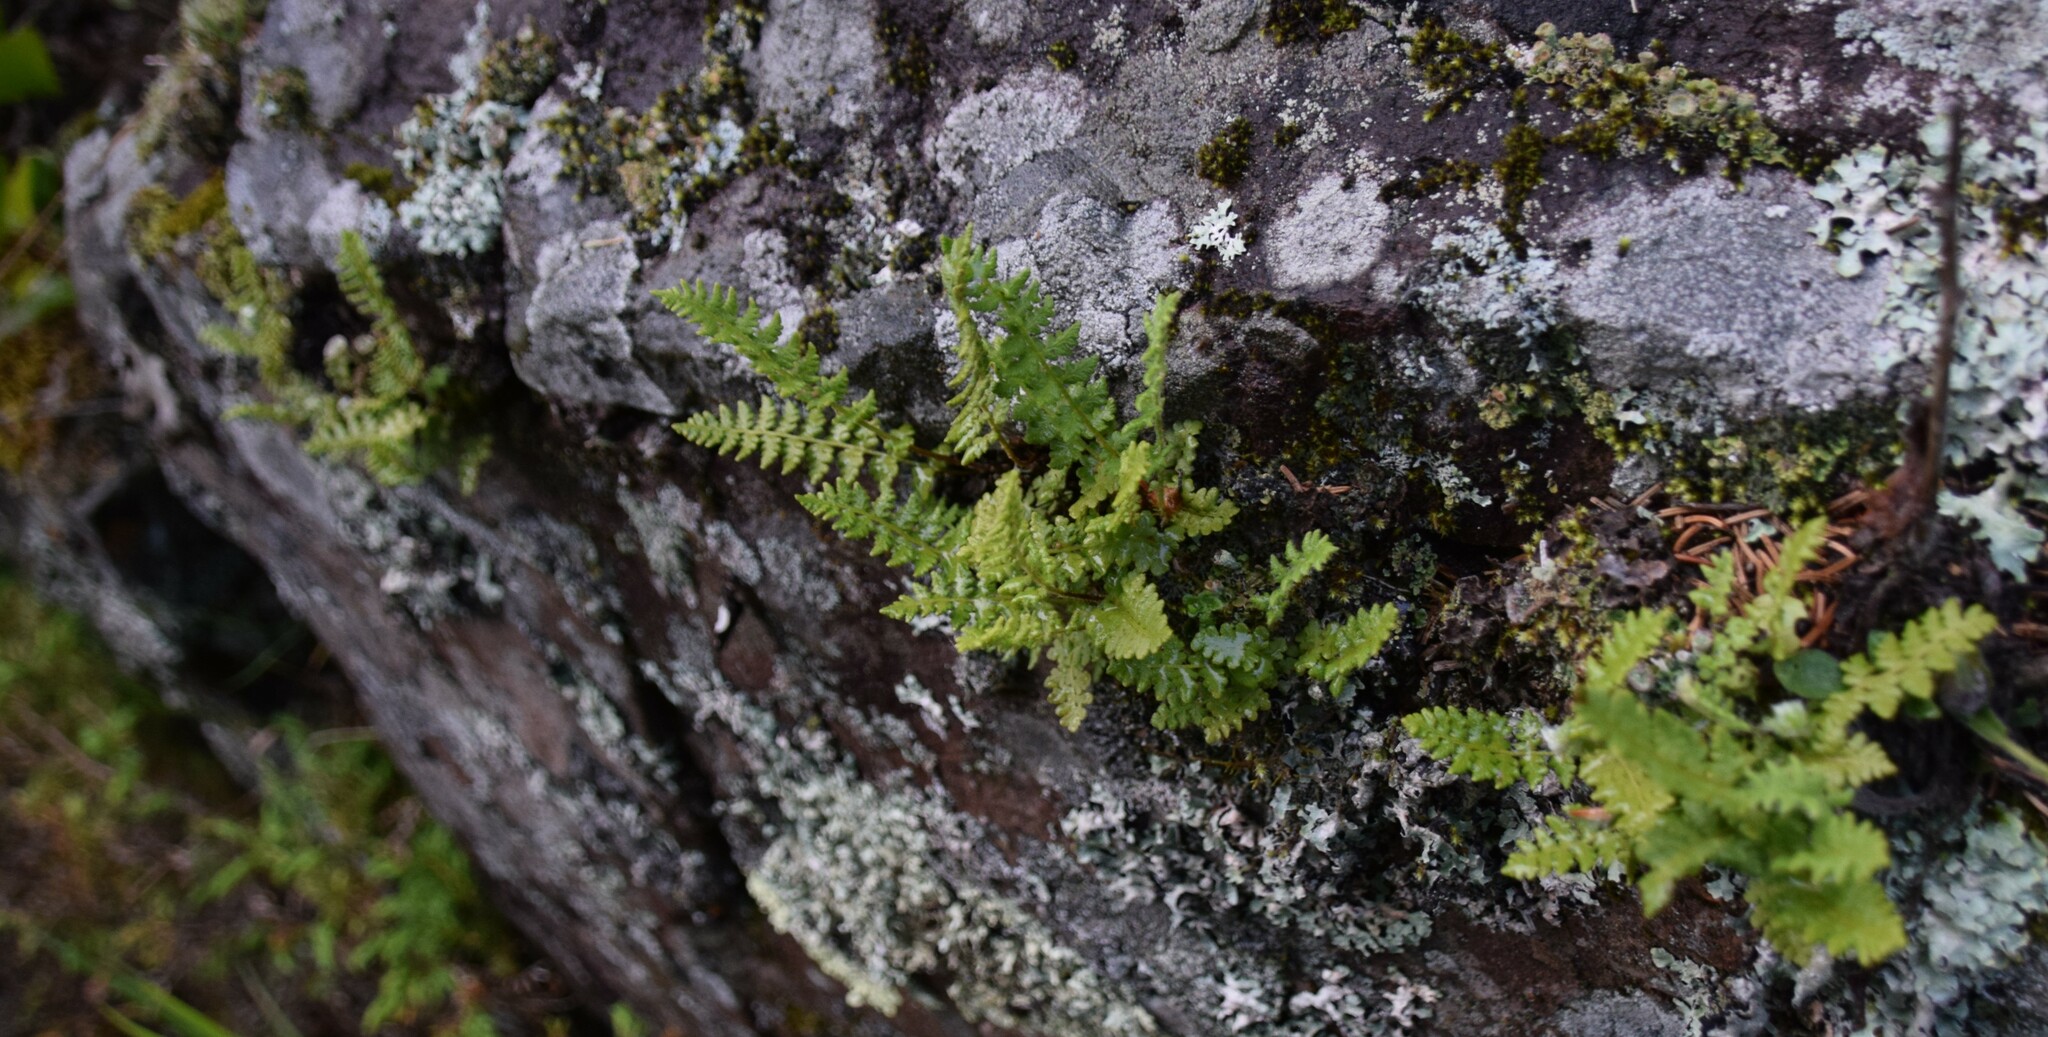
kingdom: Plantae
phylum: Tracheophyta
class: Polypodiopsida
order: Polypodiales
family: Woodsiaceae
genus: Woodsia
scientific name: Woodsia ilvensis
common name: Fragrant woodsia
